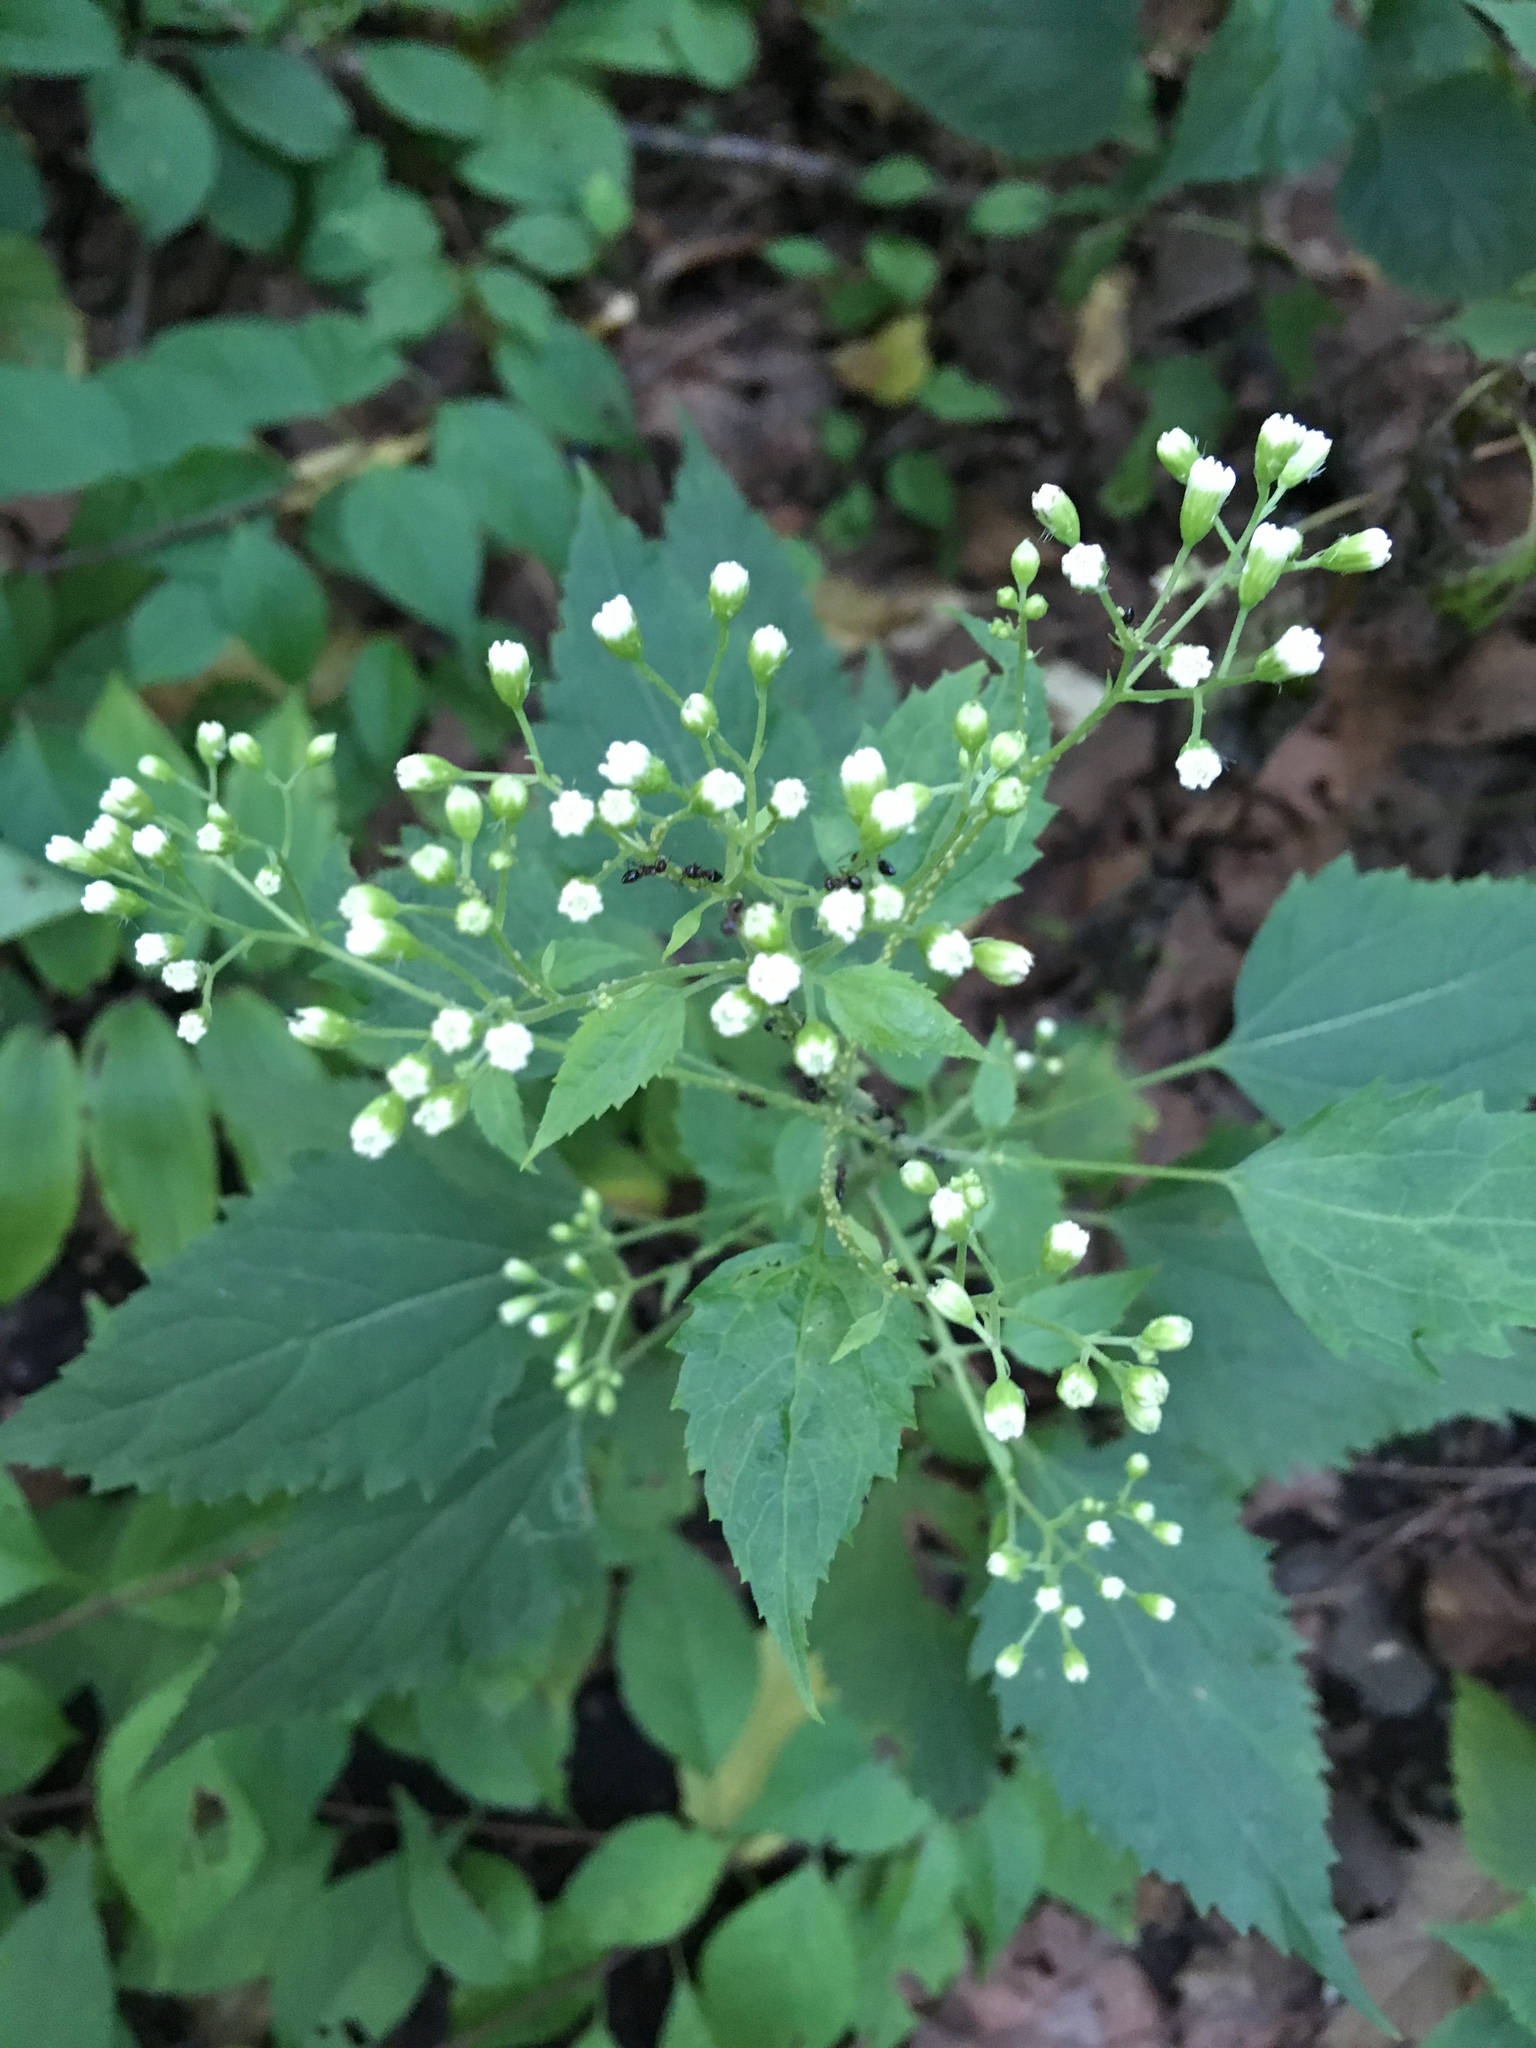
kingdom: Plantae
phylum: Tracheophyta
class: Magnoliopsida
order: Asterales
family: Asteraceae
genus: Ageratina
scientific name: Ageratina altissima
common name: White snakeroot
